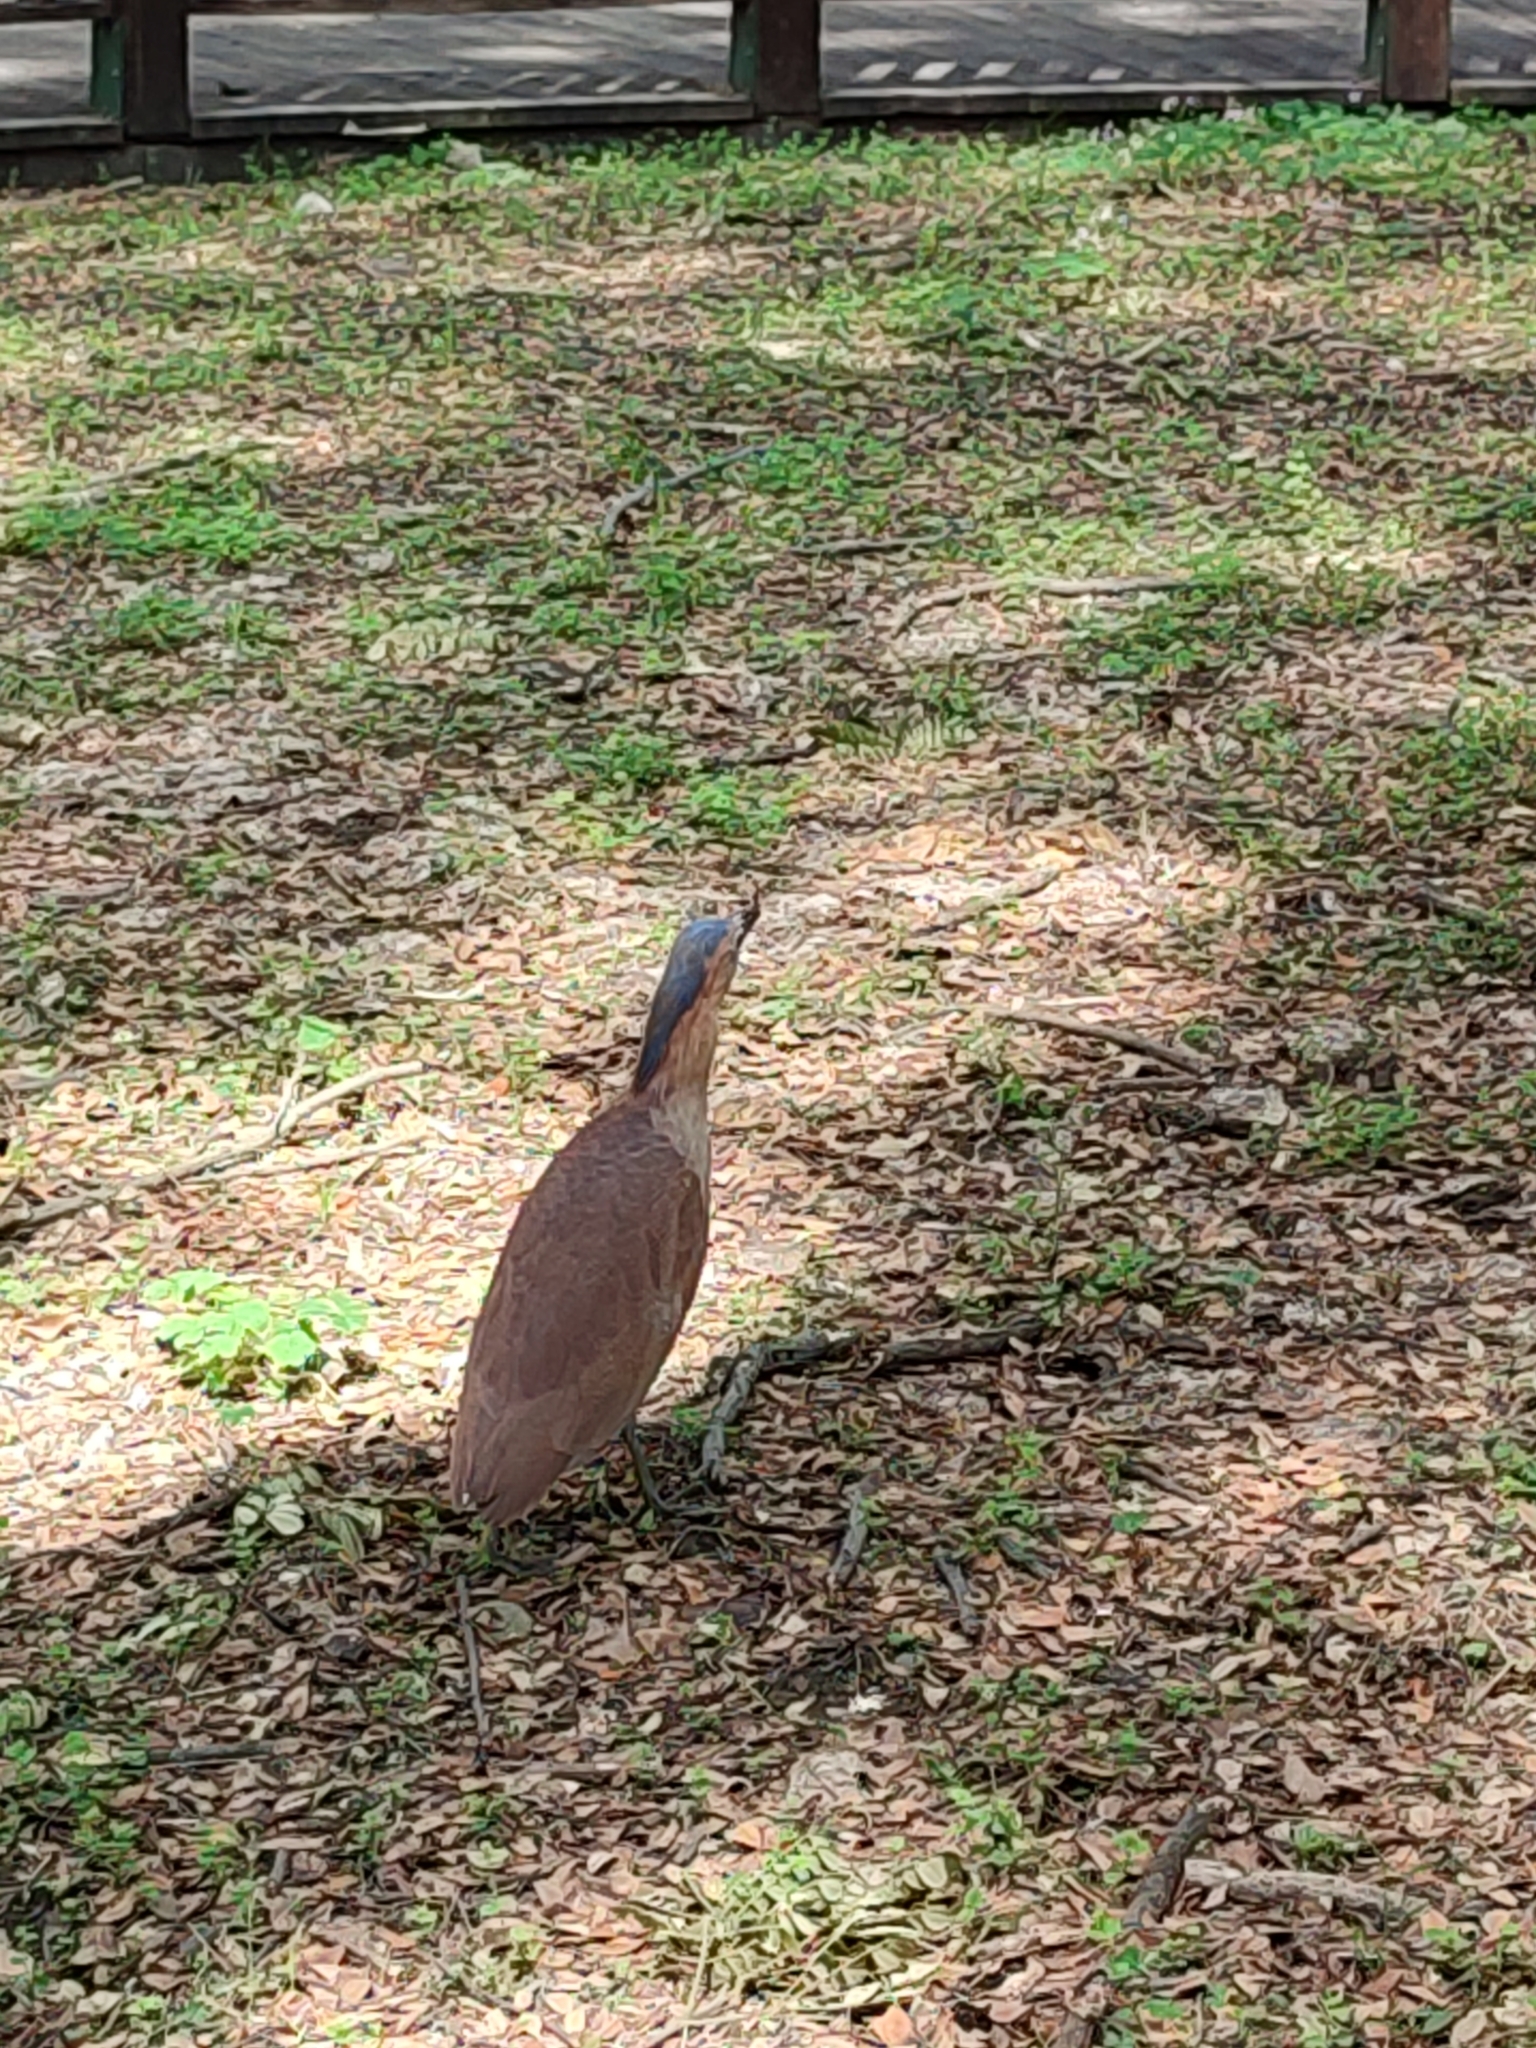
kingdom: Animalia
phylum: Chordata
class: Aves
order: Pelecaniformes
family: Ardeidae
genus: Gorsachius
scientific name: Gorsachius melanolophus
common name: Malayan night heron
